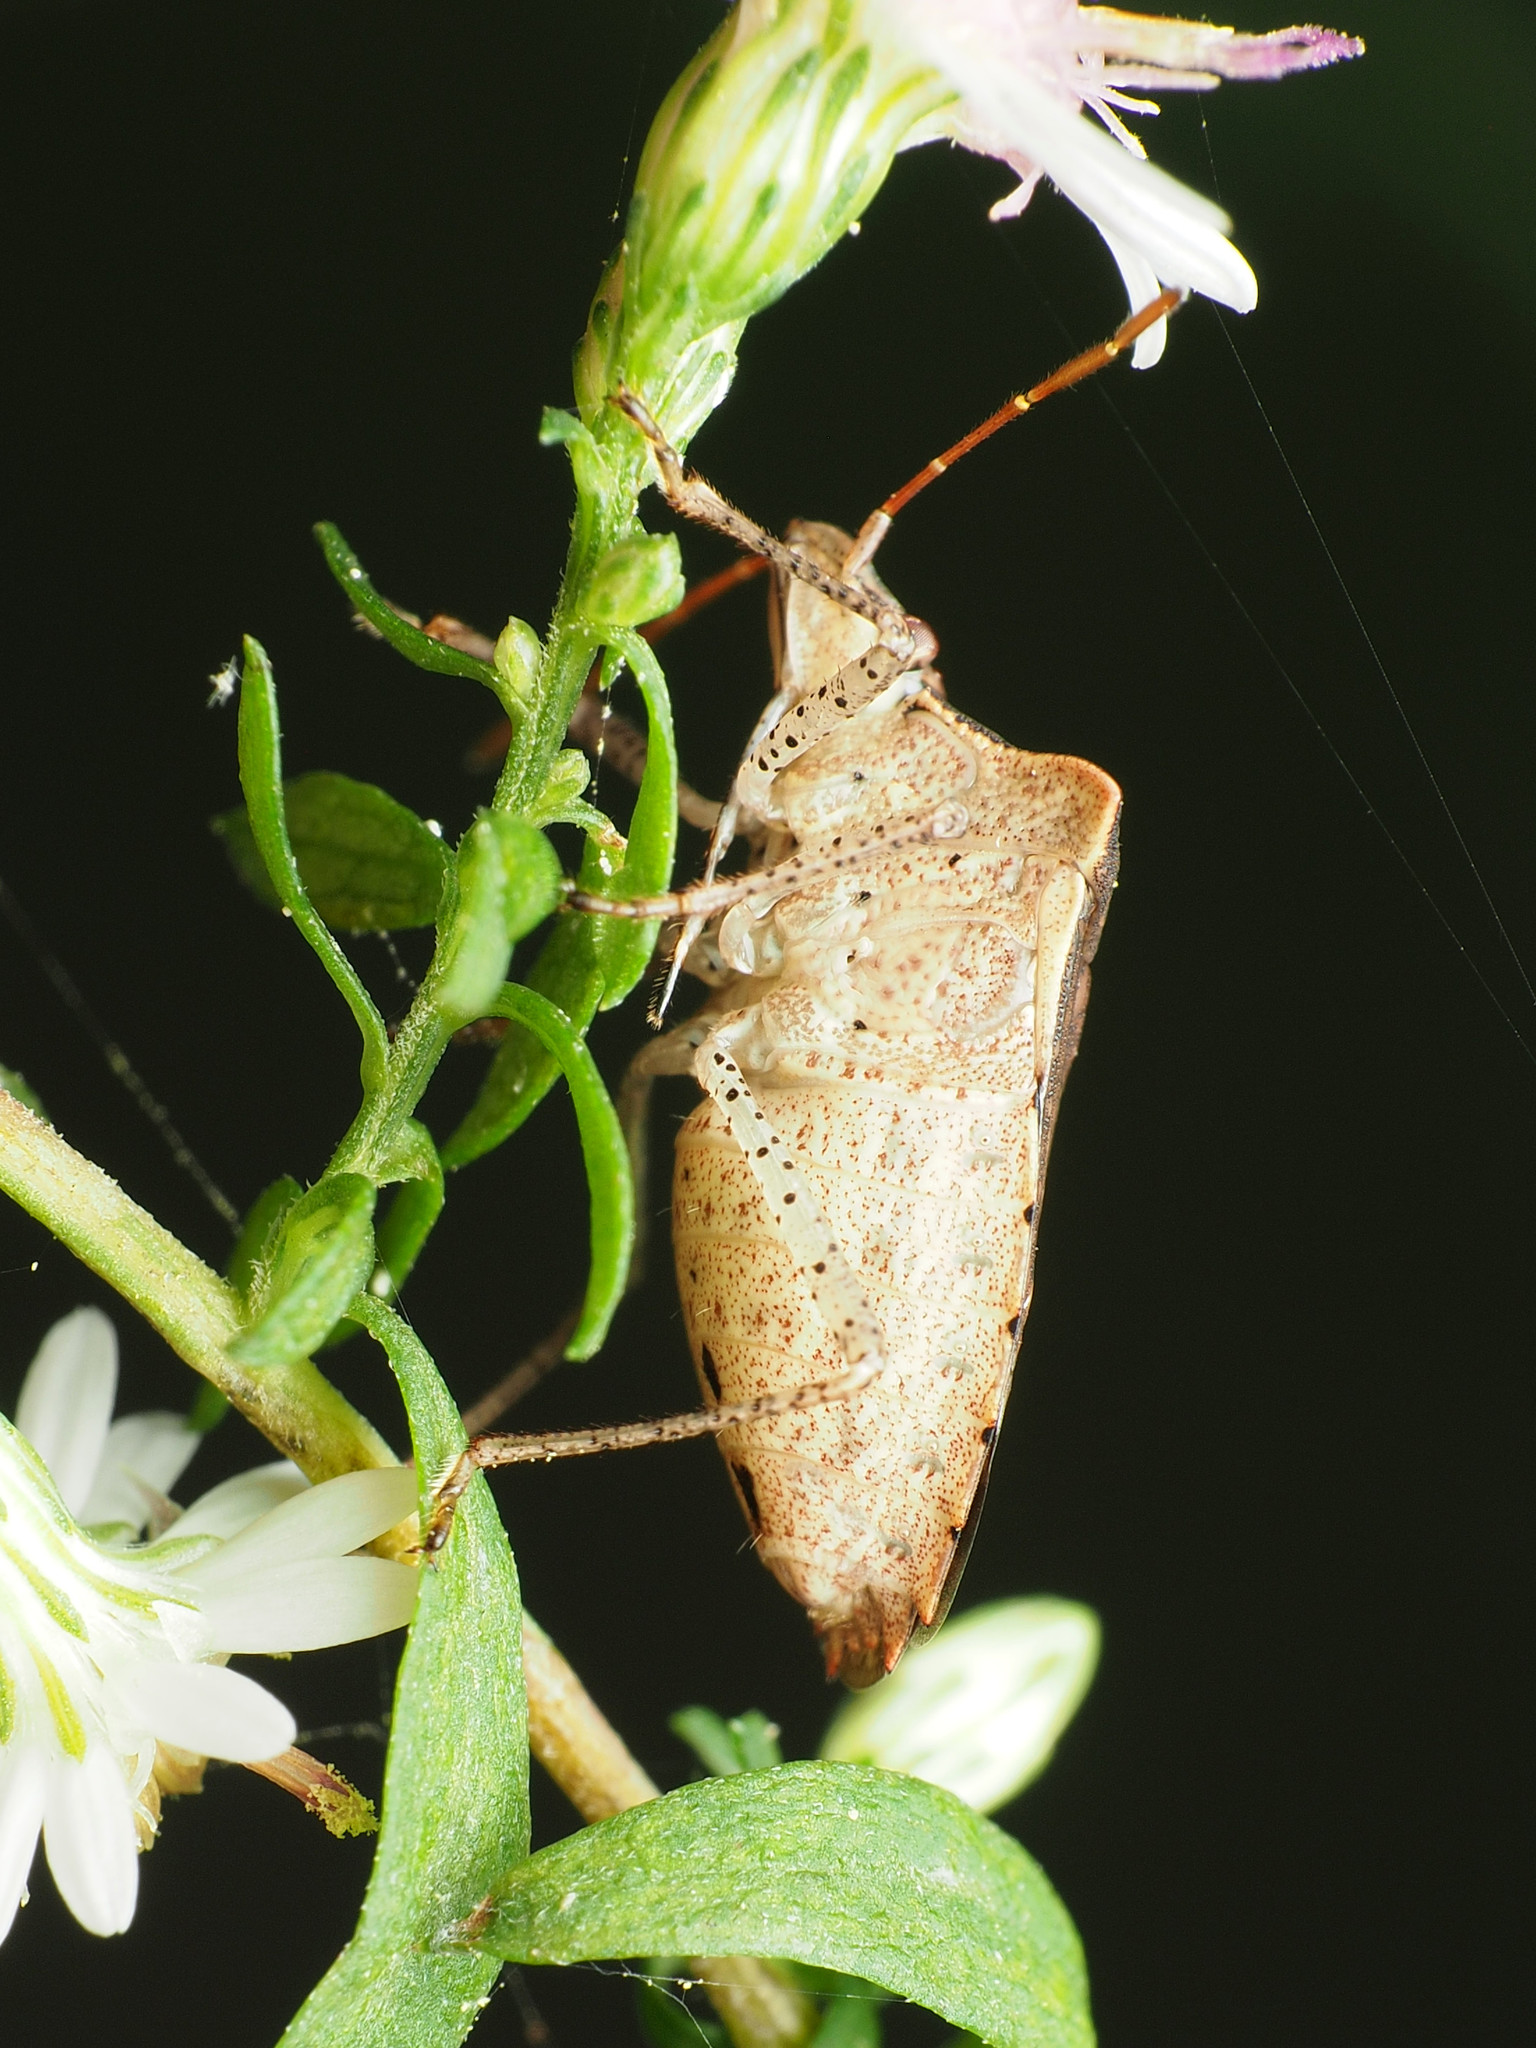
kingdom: Animalia
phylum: Arthropoda
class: Insecta
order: Hemiptera
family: Pentatomidae
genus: Euschistus
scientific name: Euschistus tristigmus
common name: Dusky stink bug
